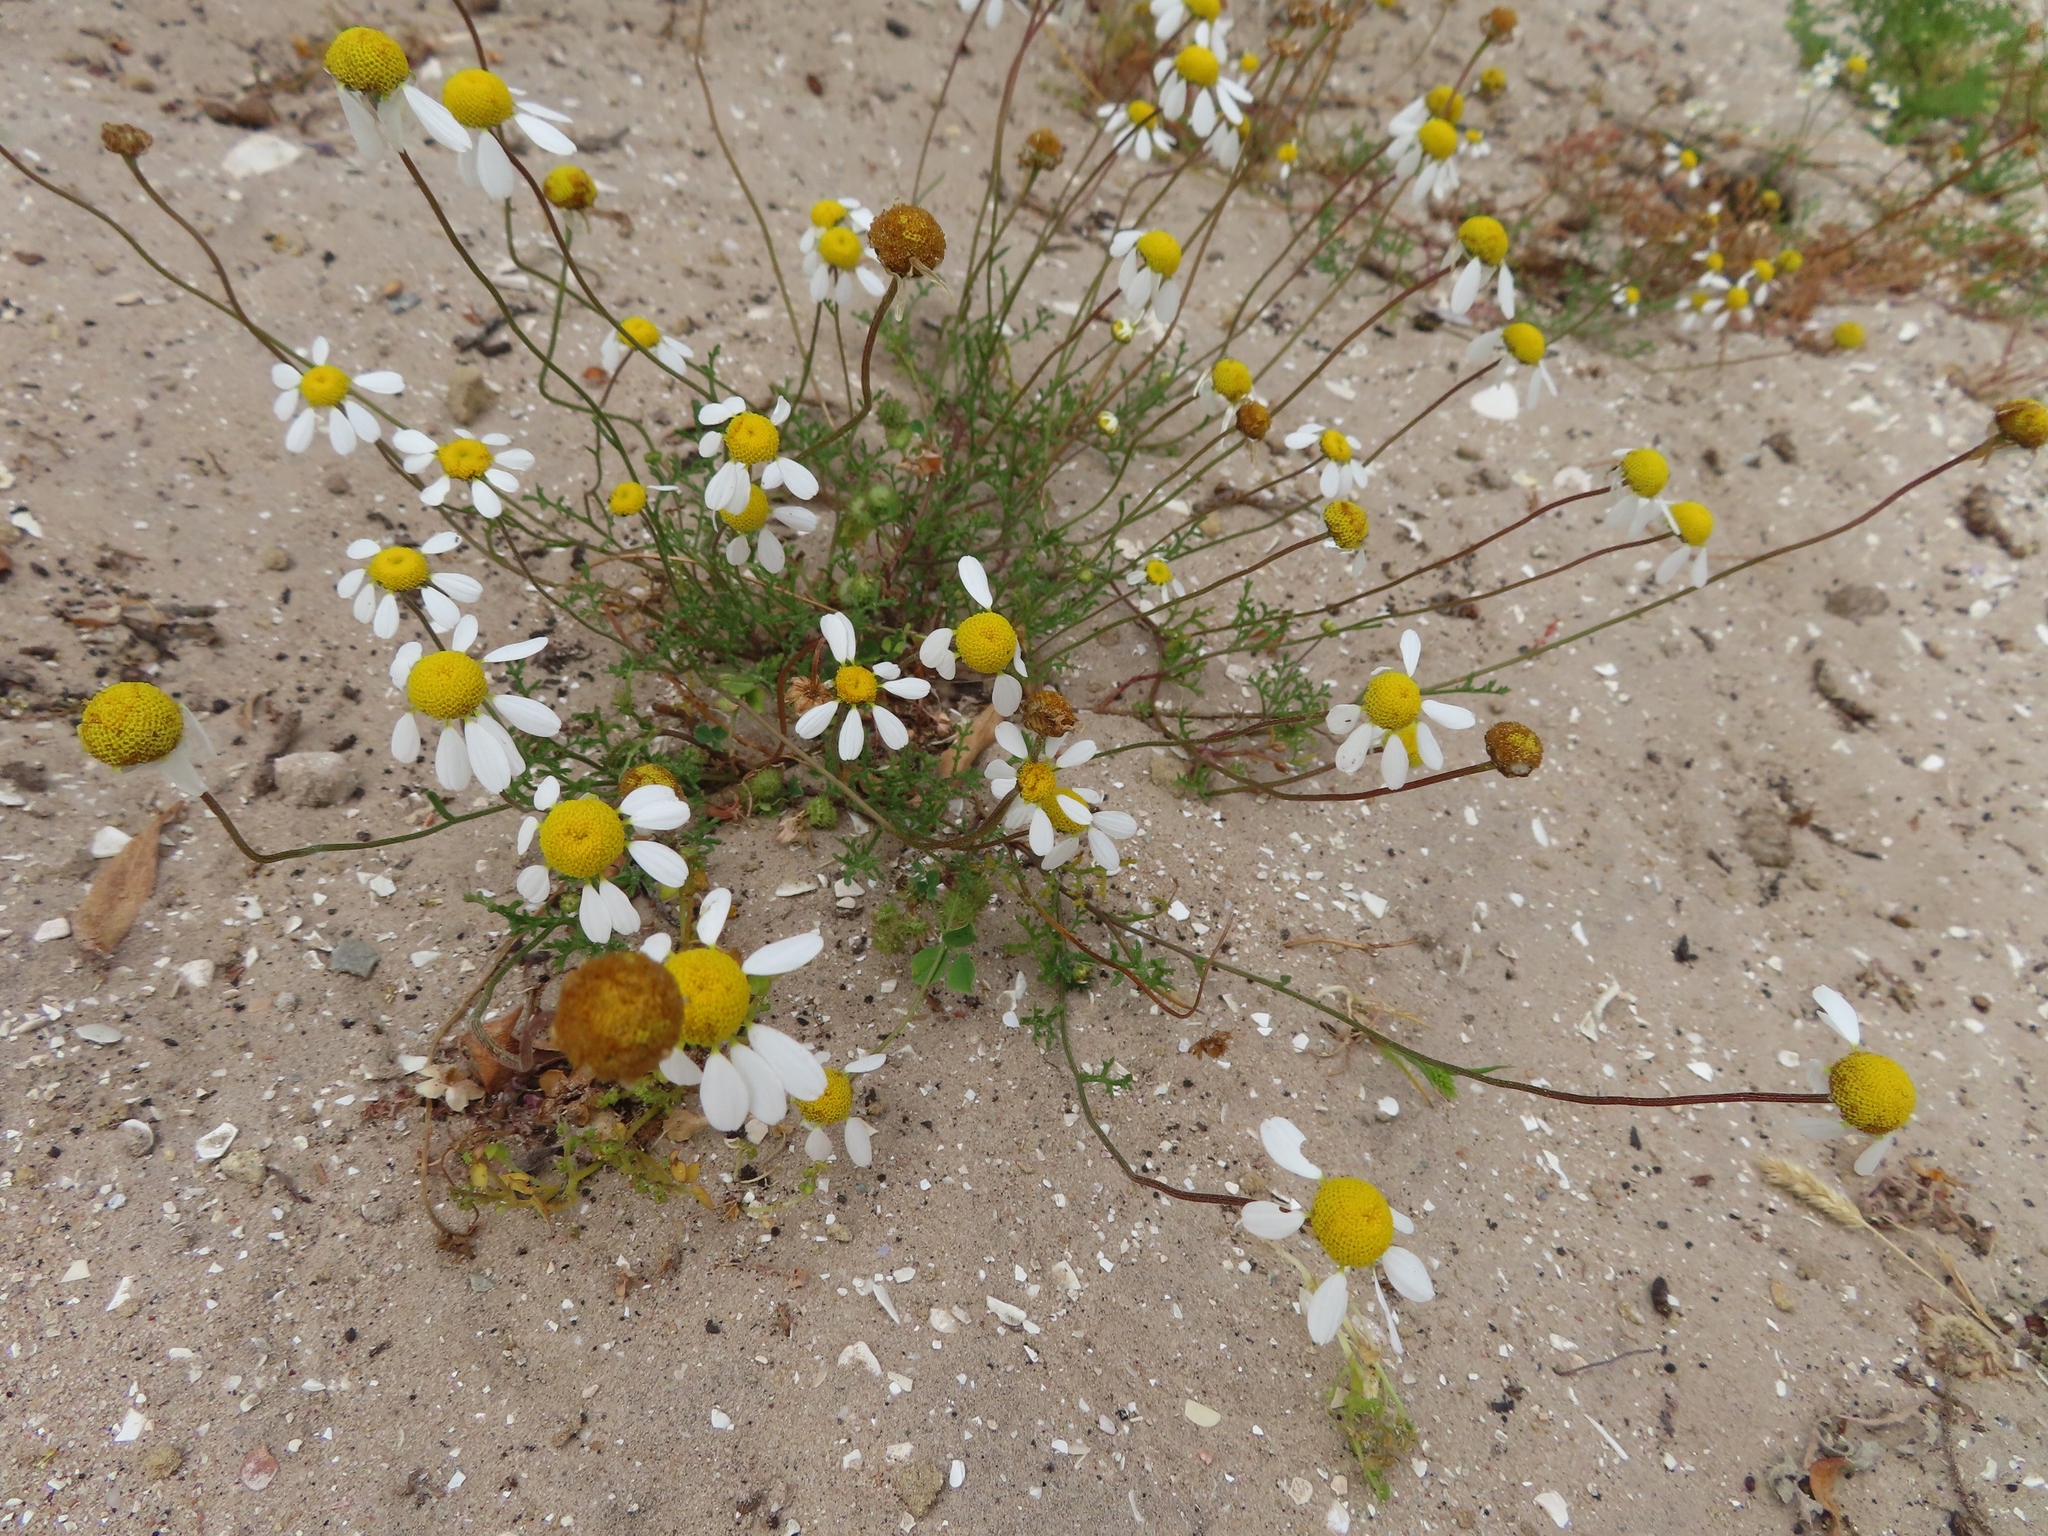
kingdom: Plantae
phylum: Tracheophyta
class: Magnoliopsida
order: Asterales
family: Asteraceae
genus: Oncosiphon
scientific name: Oncosiphon africanus
